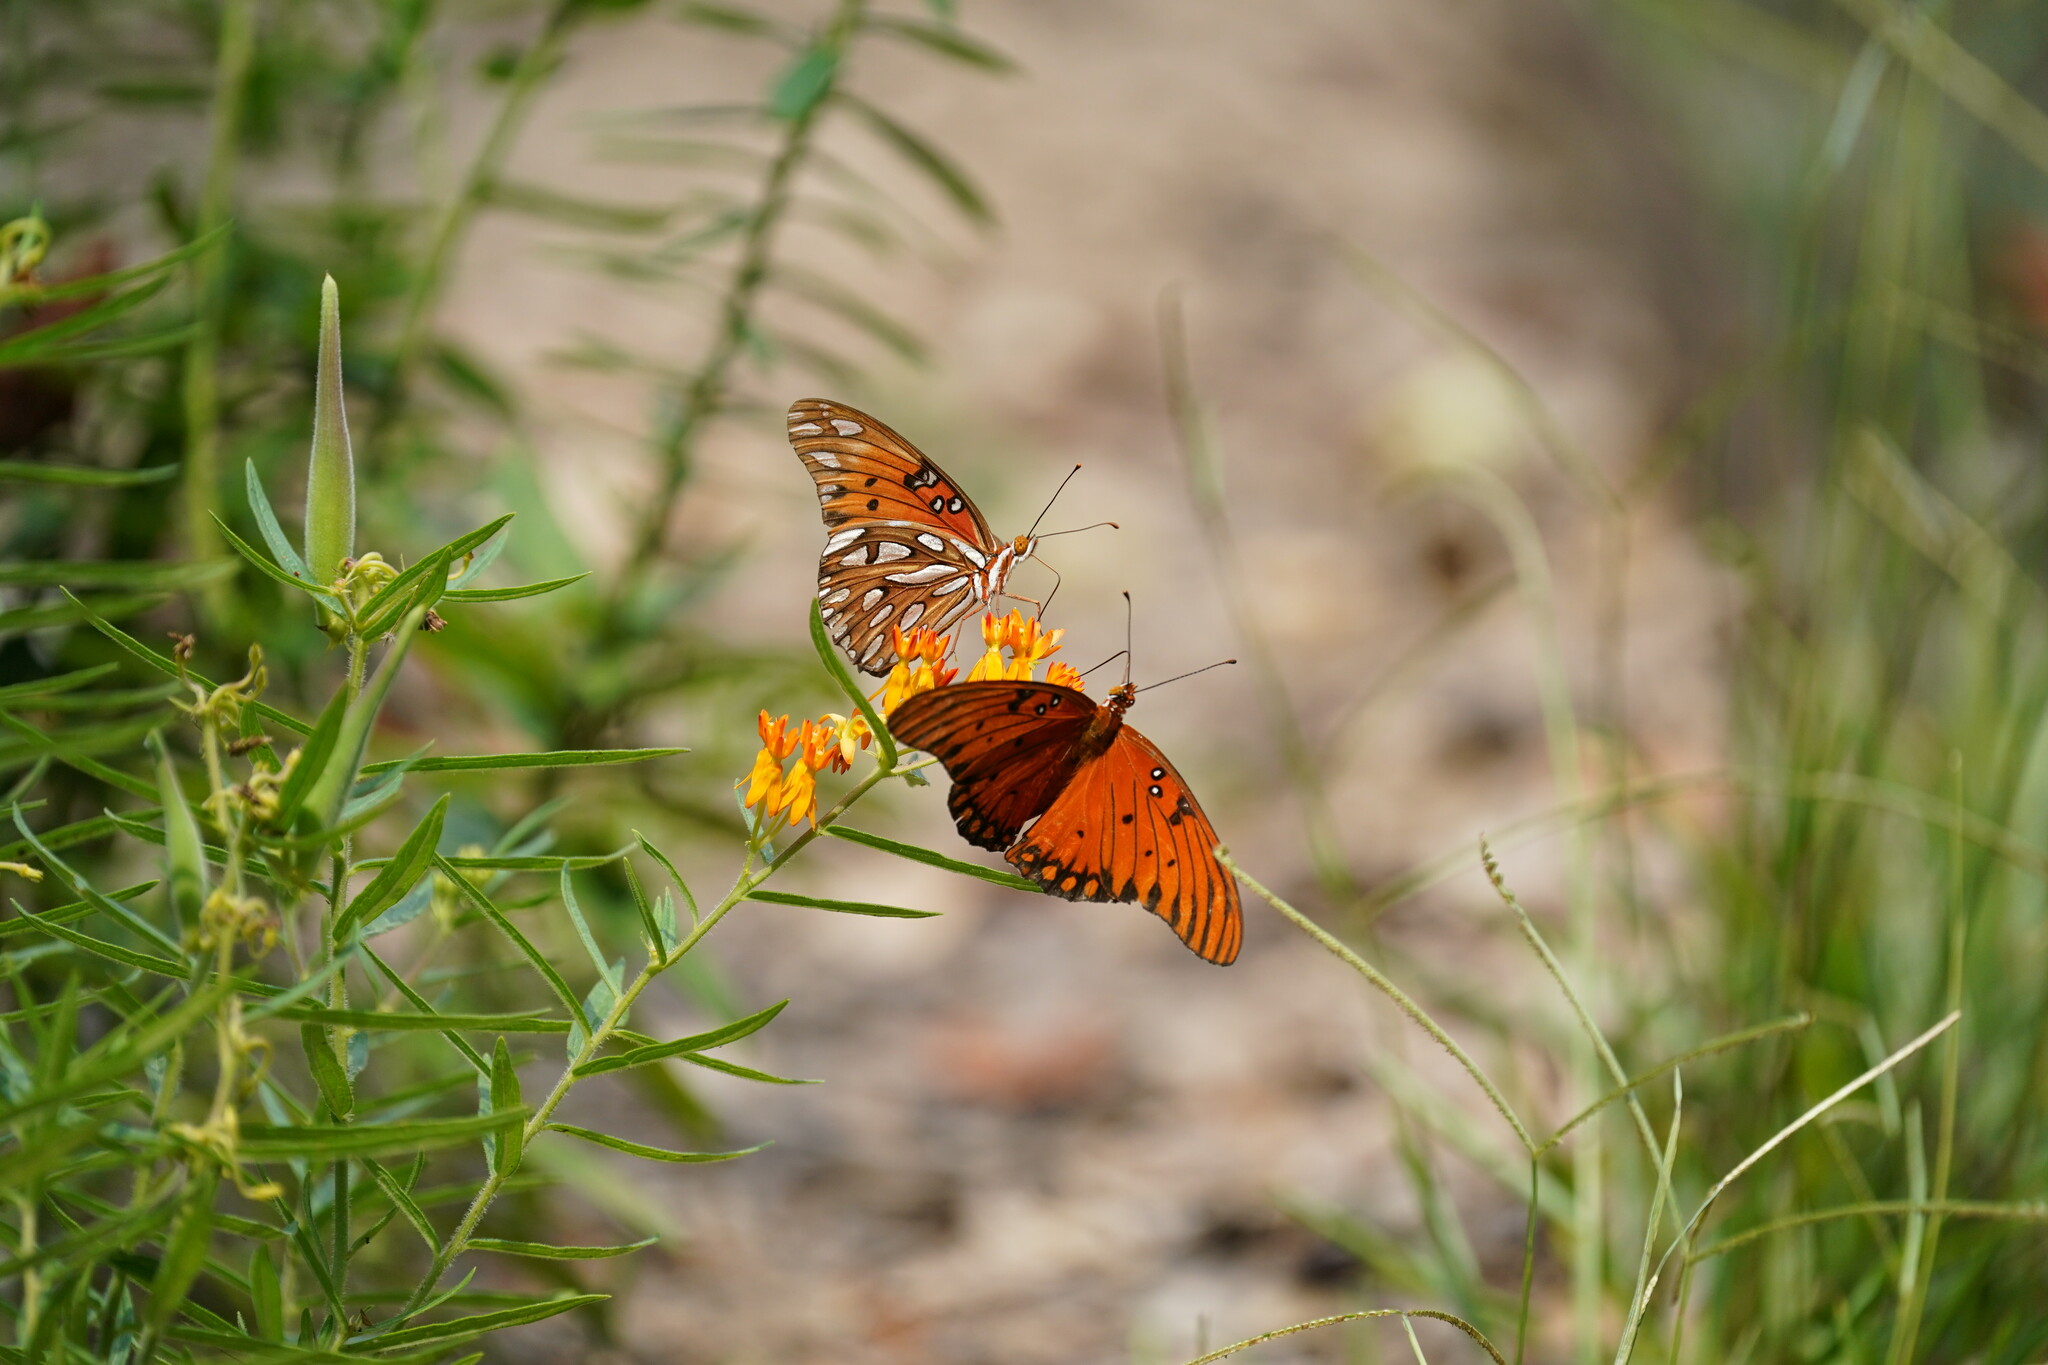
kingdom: Animalia
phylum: Arthropoda
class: Insecta
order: Lepidoptera
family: Nymphalidae
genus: Dione
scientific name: Dione vanillae
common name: Gulf fritillary
